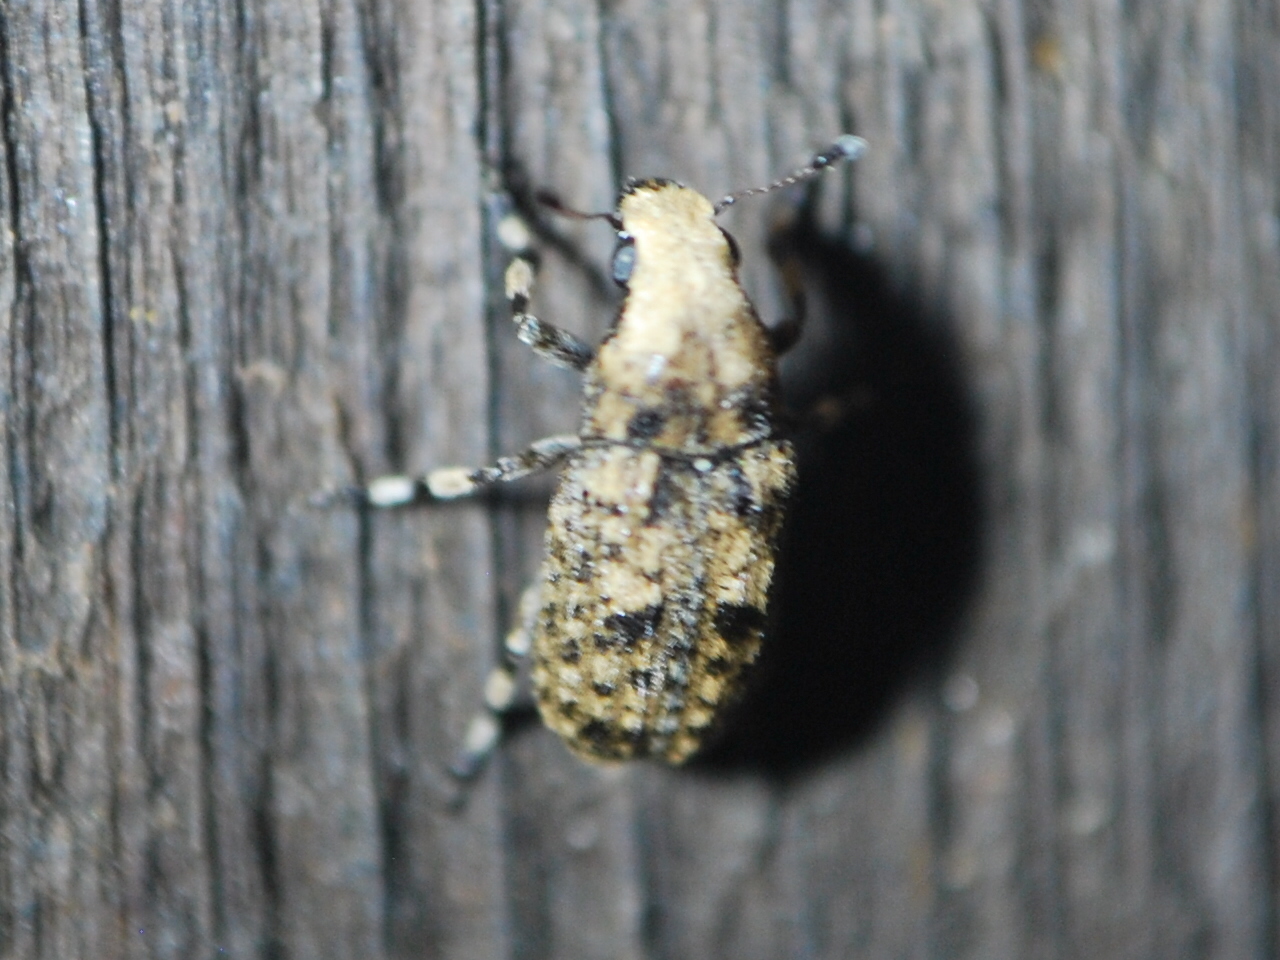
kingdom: Animalia
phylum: Arthropoda
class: Insecta
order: Coleoptera
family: Anthribidae
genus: Euparius
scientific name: Euparius marmoreus
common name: Marbled fungus weevil
